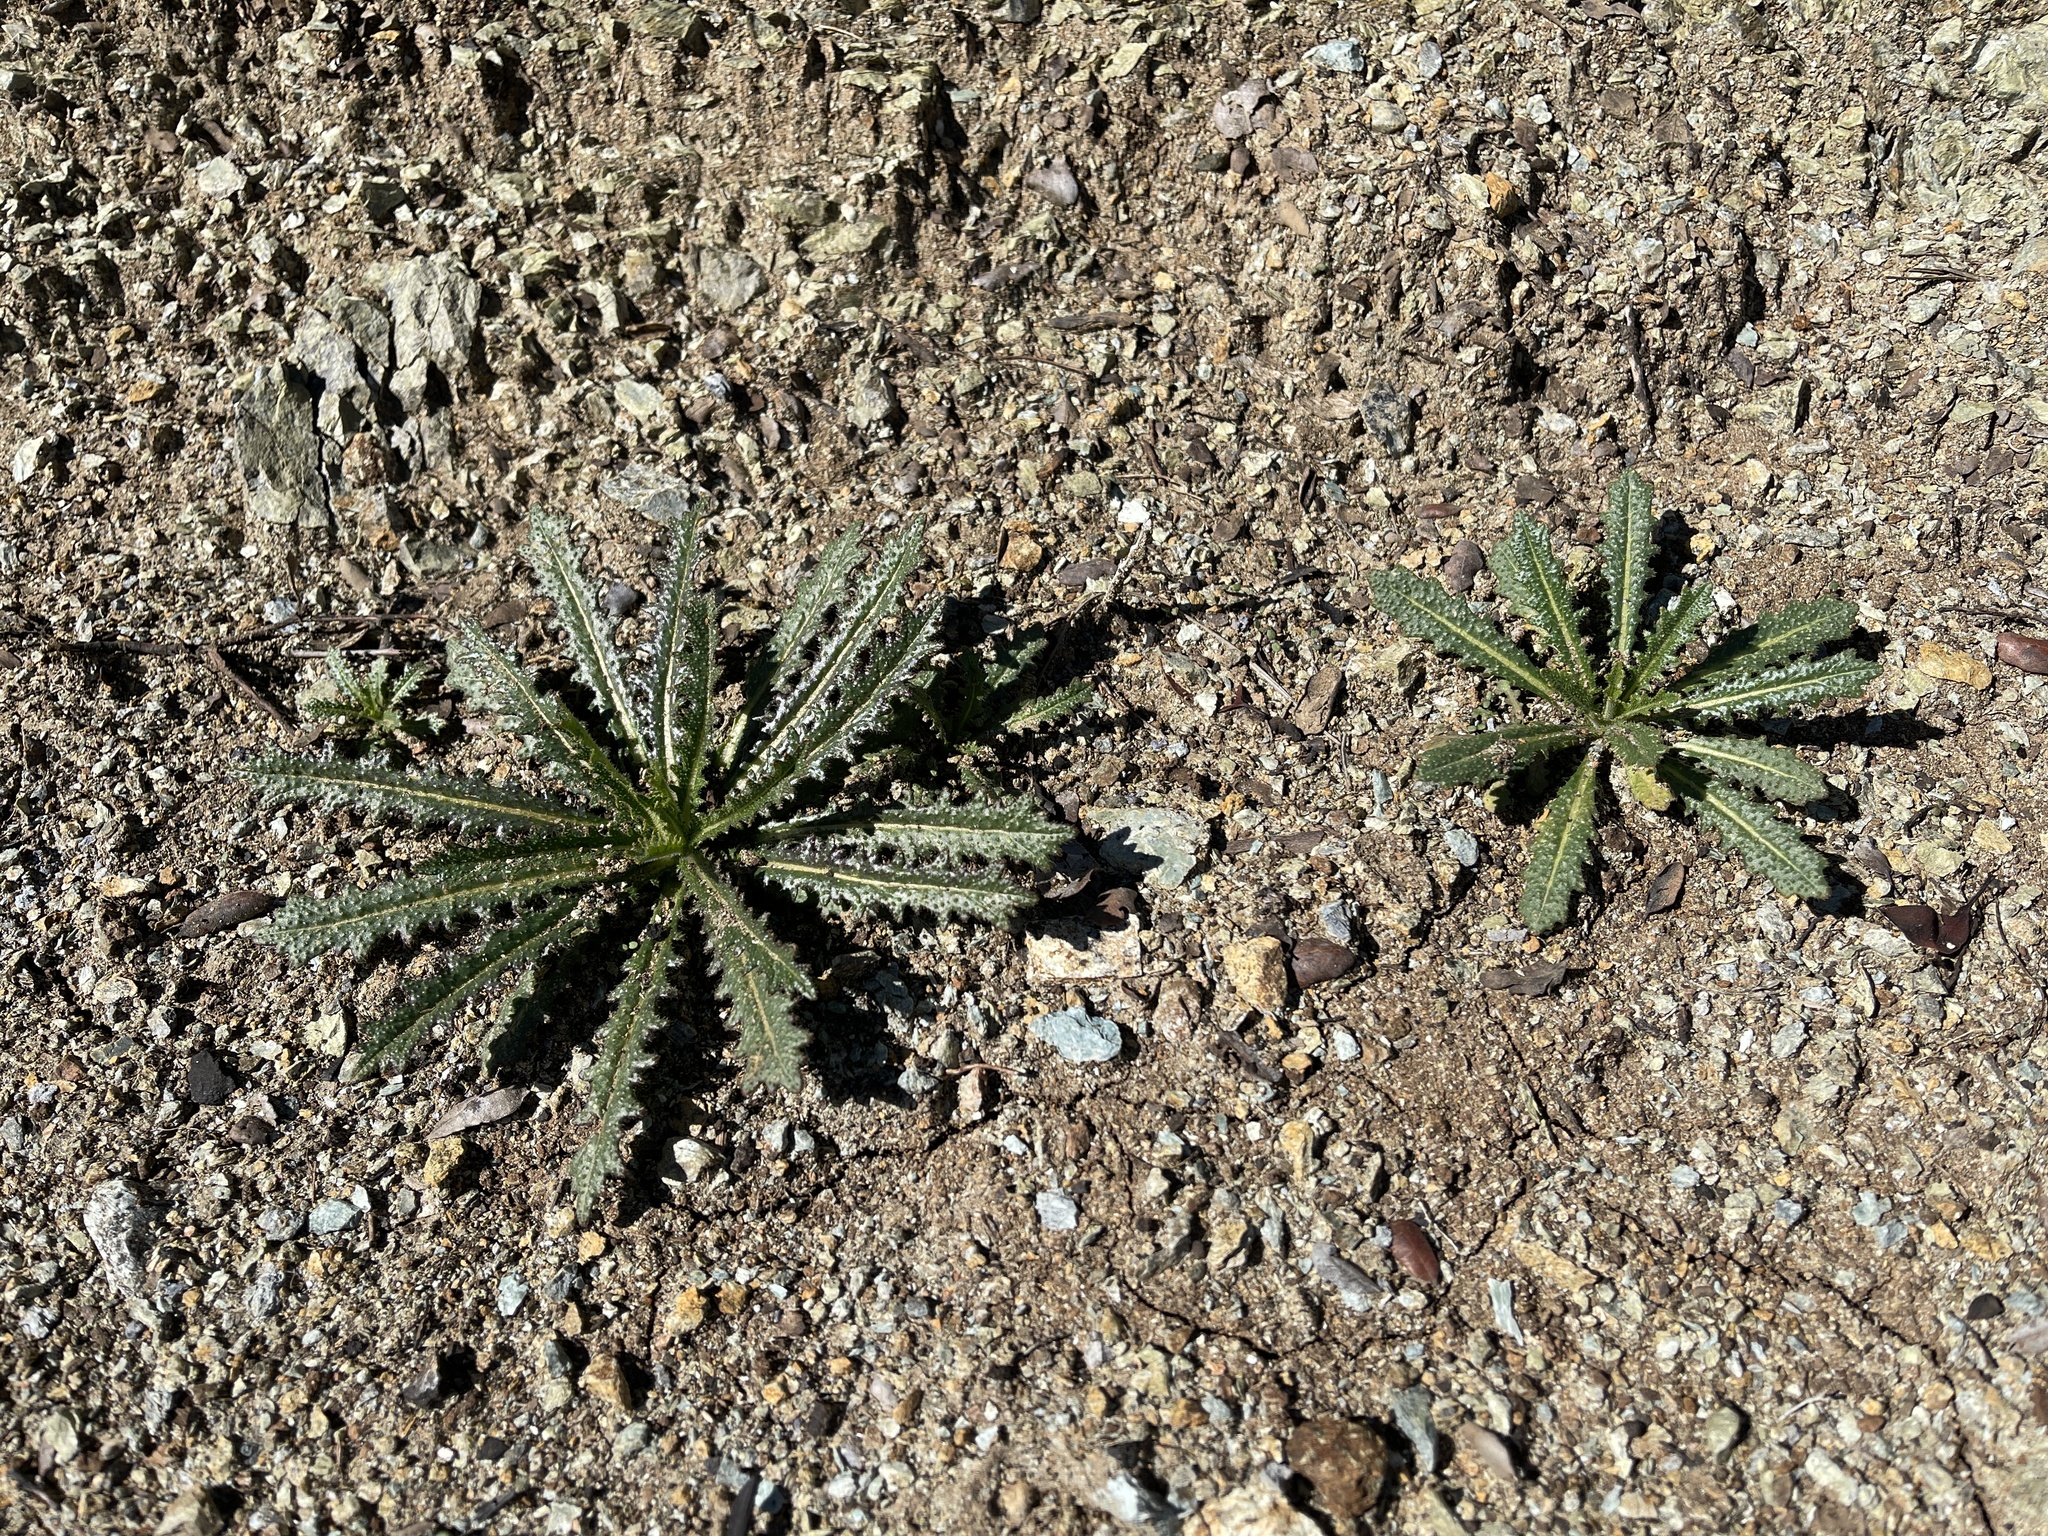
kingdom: Plantae
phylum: Tracheophyta
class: Magnoliopsida
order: Brassicales
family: Brassicaceae
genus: Streptanthus
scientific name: Streptanthus glandulosus
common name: Jewel-flower
